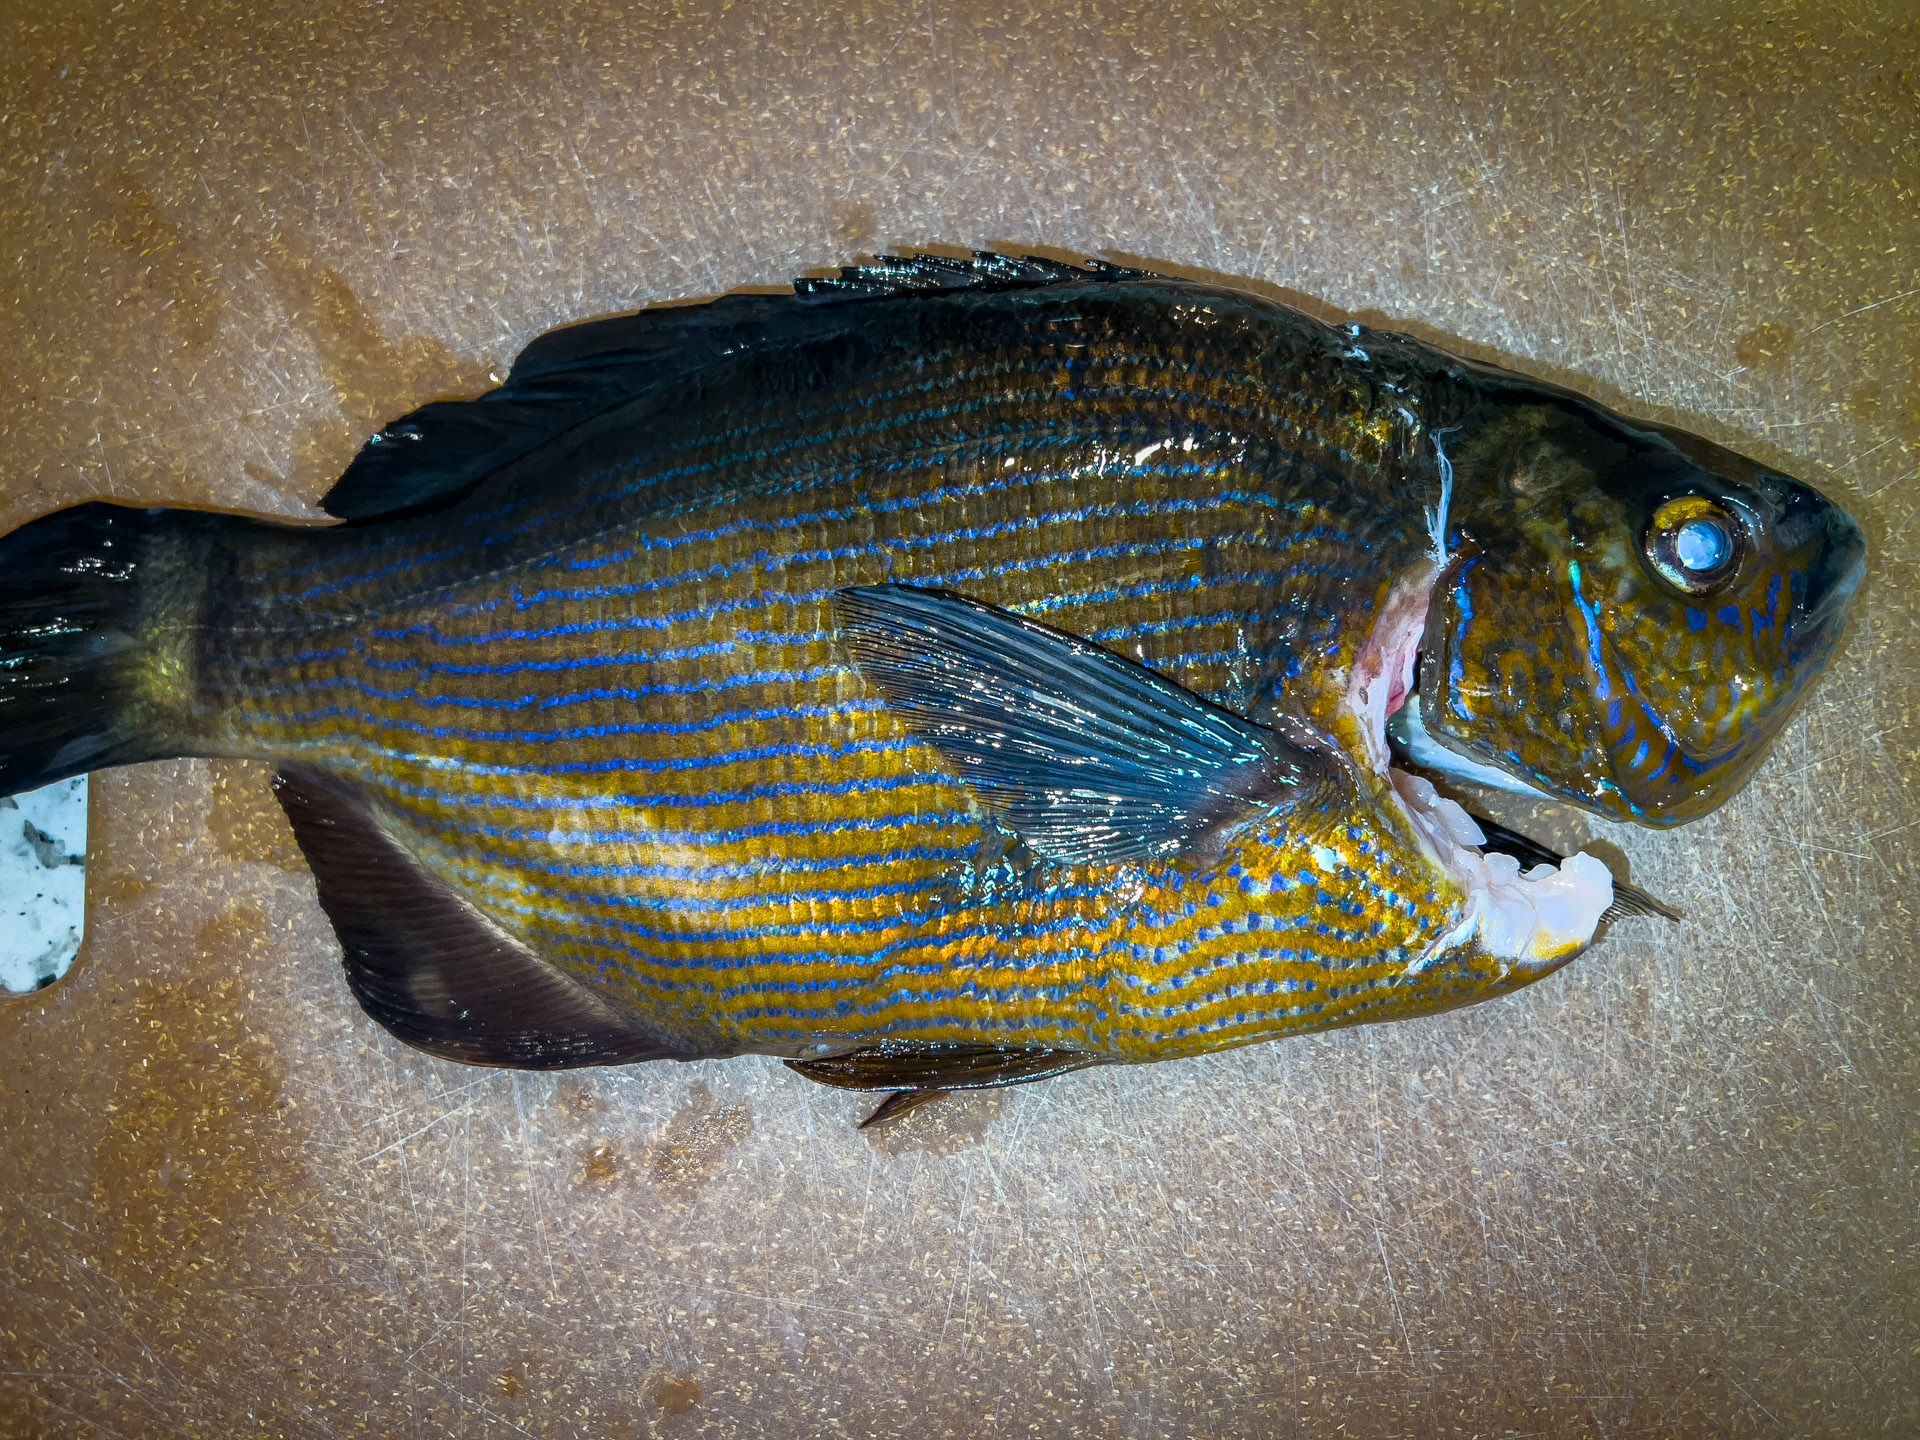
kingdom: Animalia
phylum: Chordata
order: Perciformes
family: Embiotocidae
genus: Embiotoca
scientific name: Embiotoca lateralis
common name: Striped surfperch
